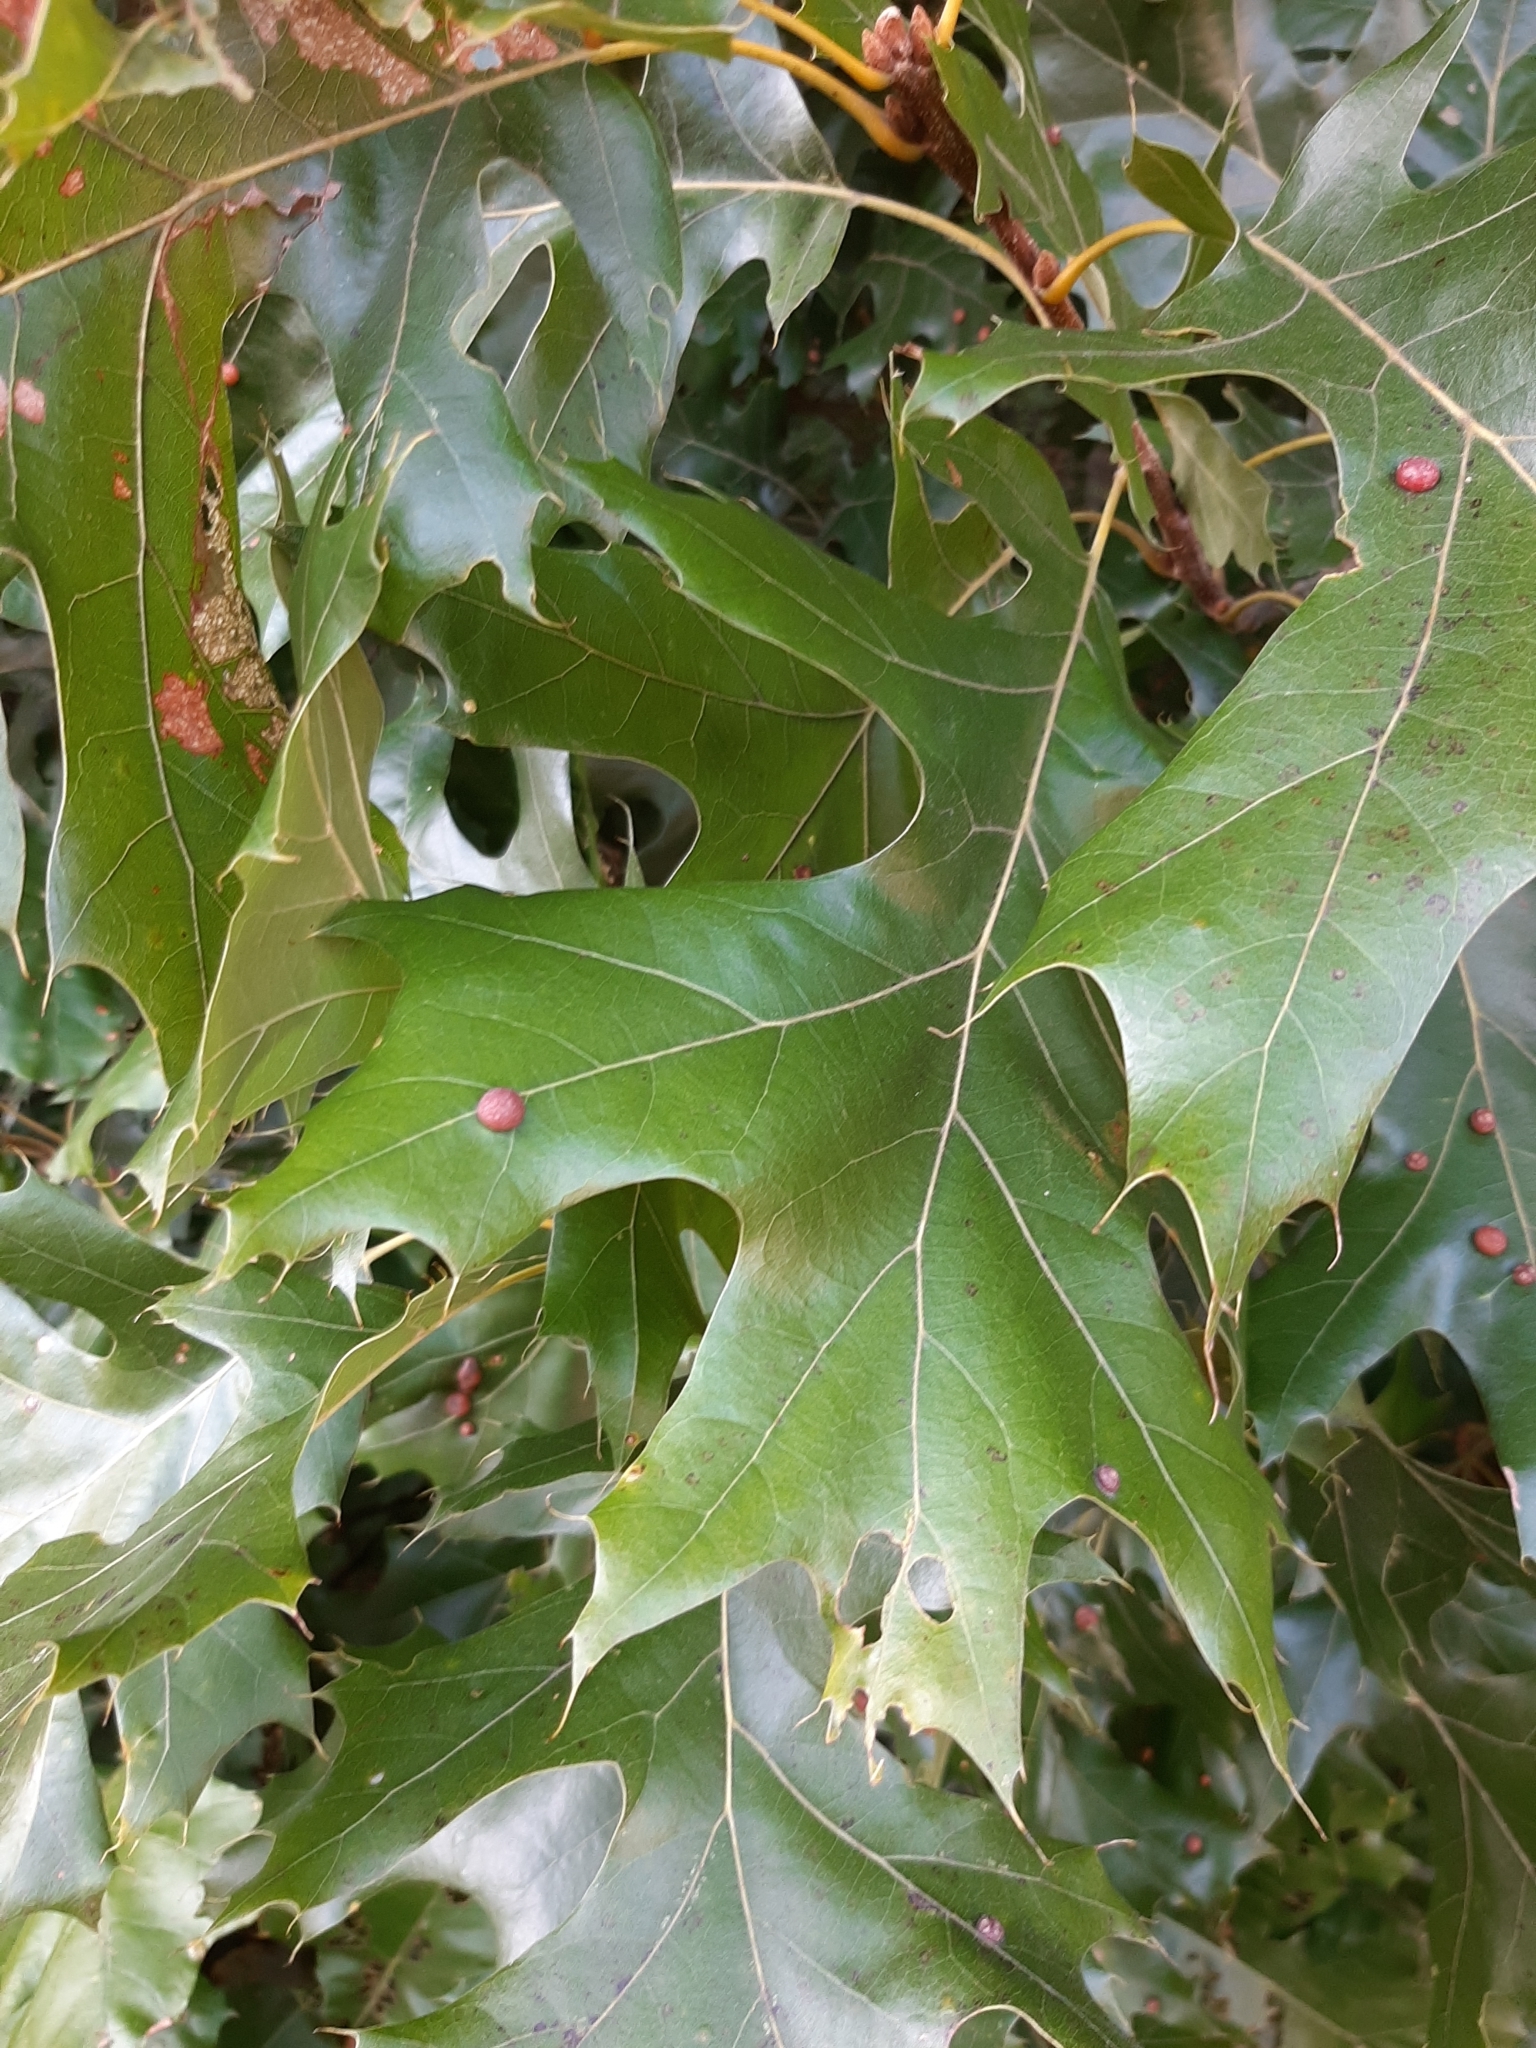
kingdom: Animalia
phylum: Arthropoda
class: Insecta
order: Diptera
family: Cecidomyiidae
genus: Polystepha
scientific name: Polystepha pilulae
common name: Oak leaf gall midge
